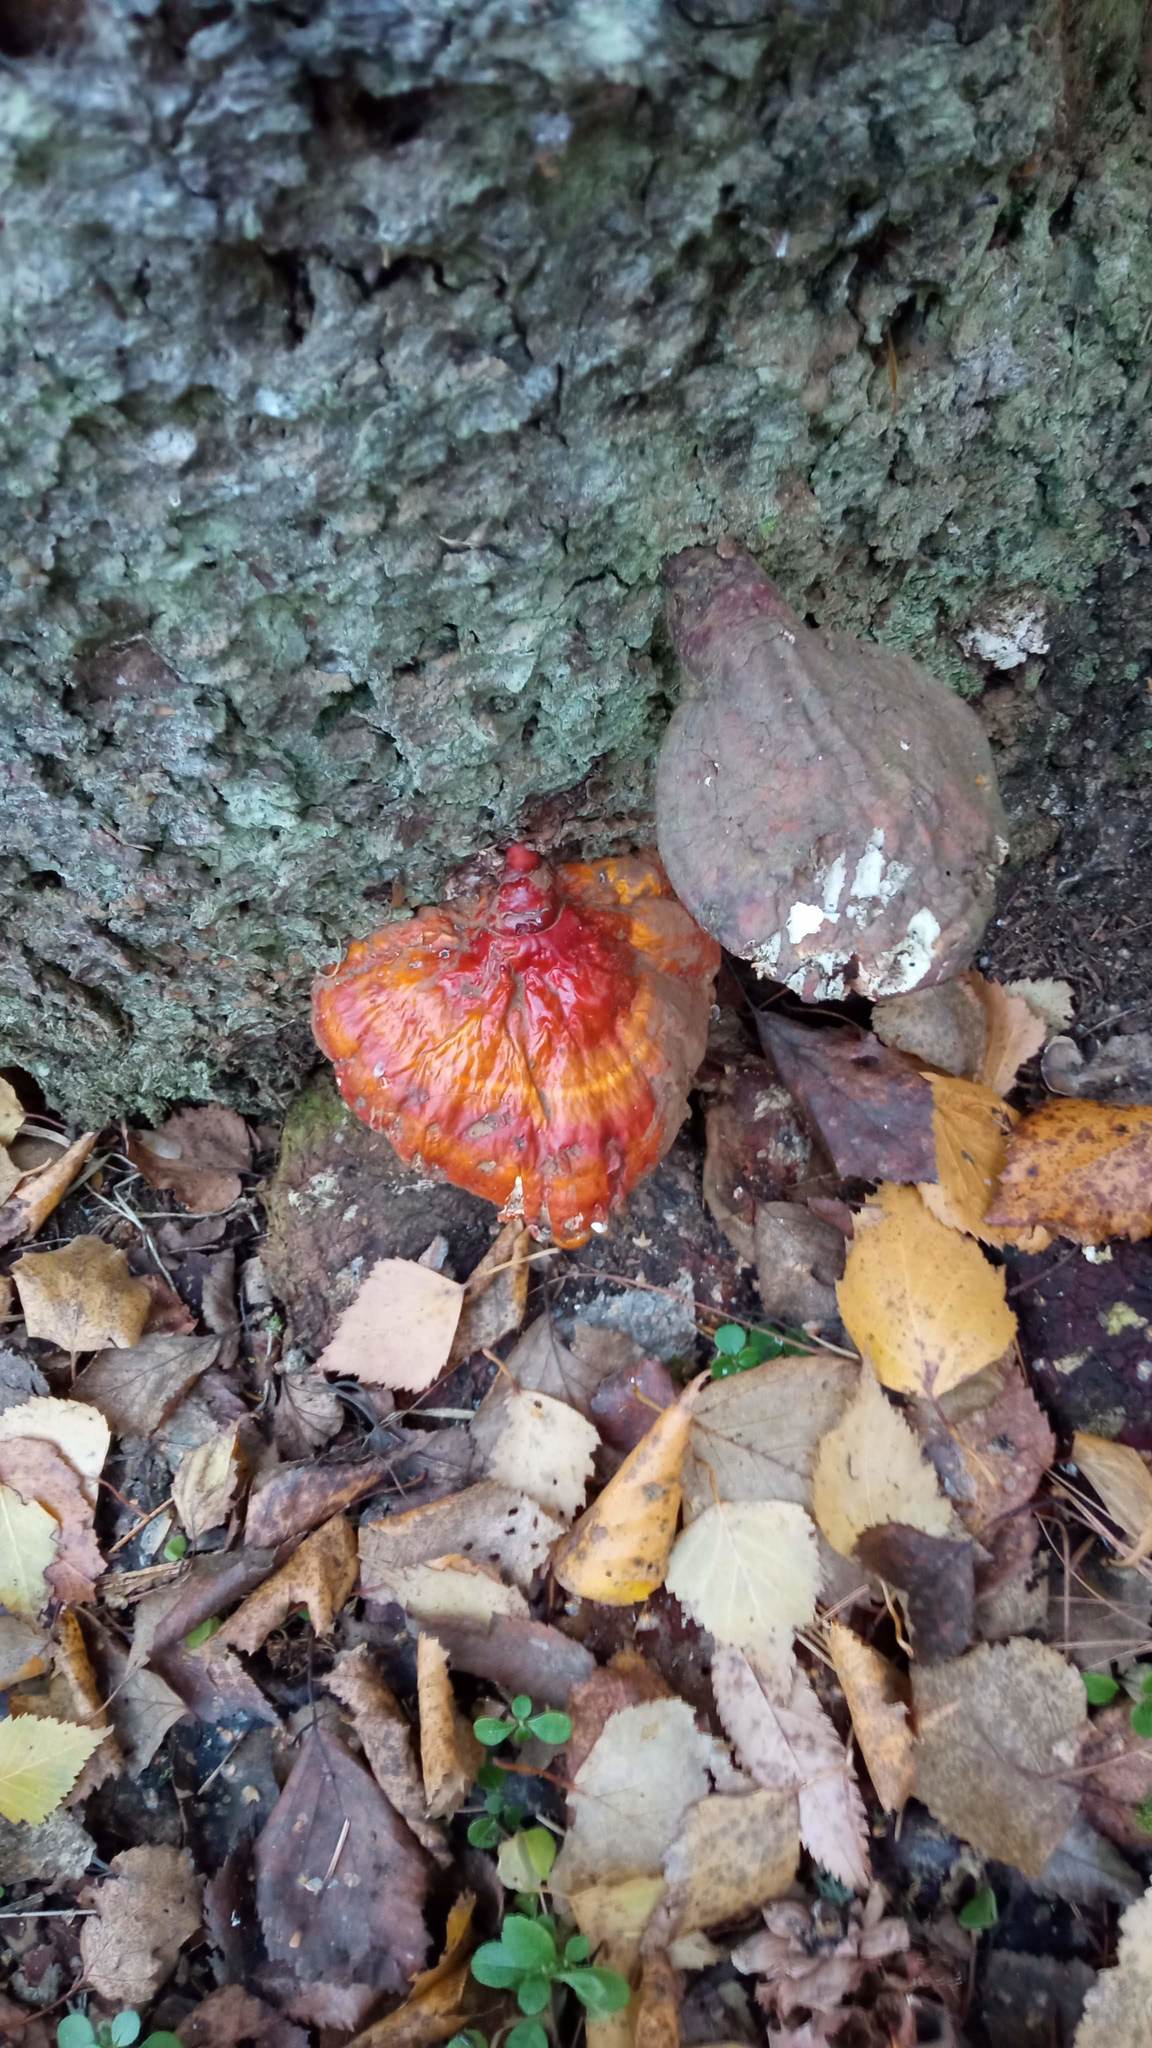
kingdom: Fungi
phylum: Basidiomycota
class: Agaricomycetes
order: Polyporales
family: Polyporaceae
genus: Ganoderma
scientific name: Ganoderma lucidum
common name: Lacquered bracket
